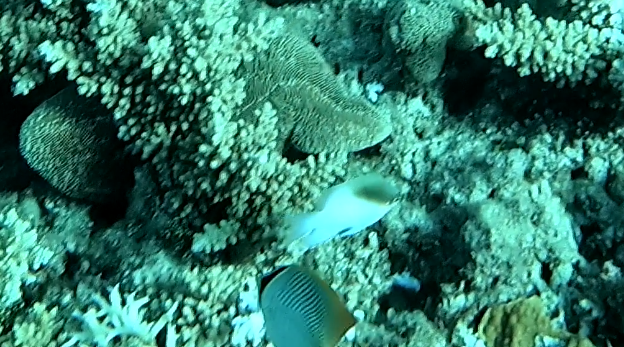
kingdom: Animalia
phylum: Chordata
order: Perciformes
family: Chaetodontidae
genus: Chaetodon
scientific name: Chaetodon trifascialis
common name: Chevroned butterflyfish
